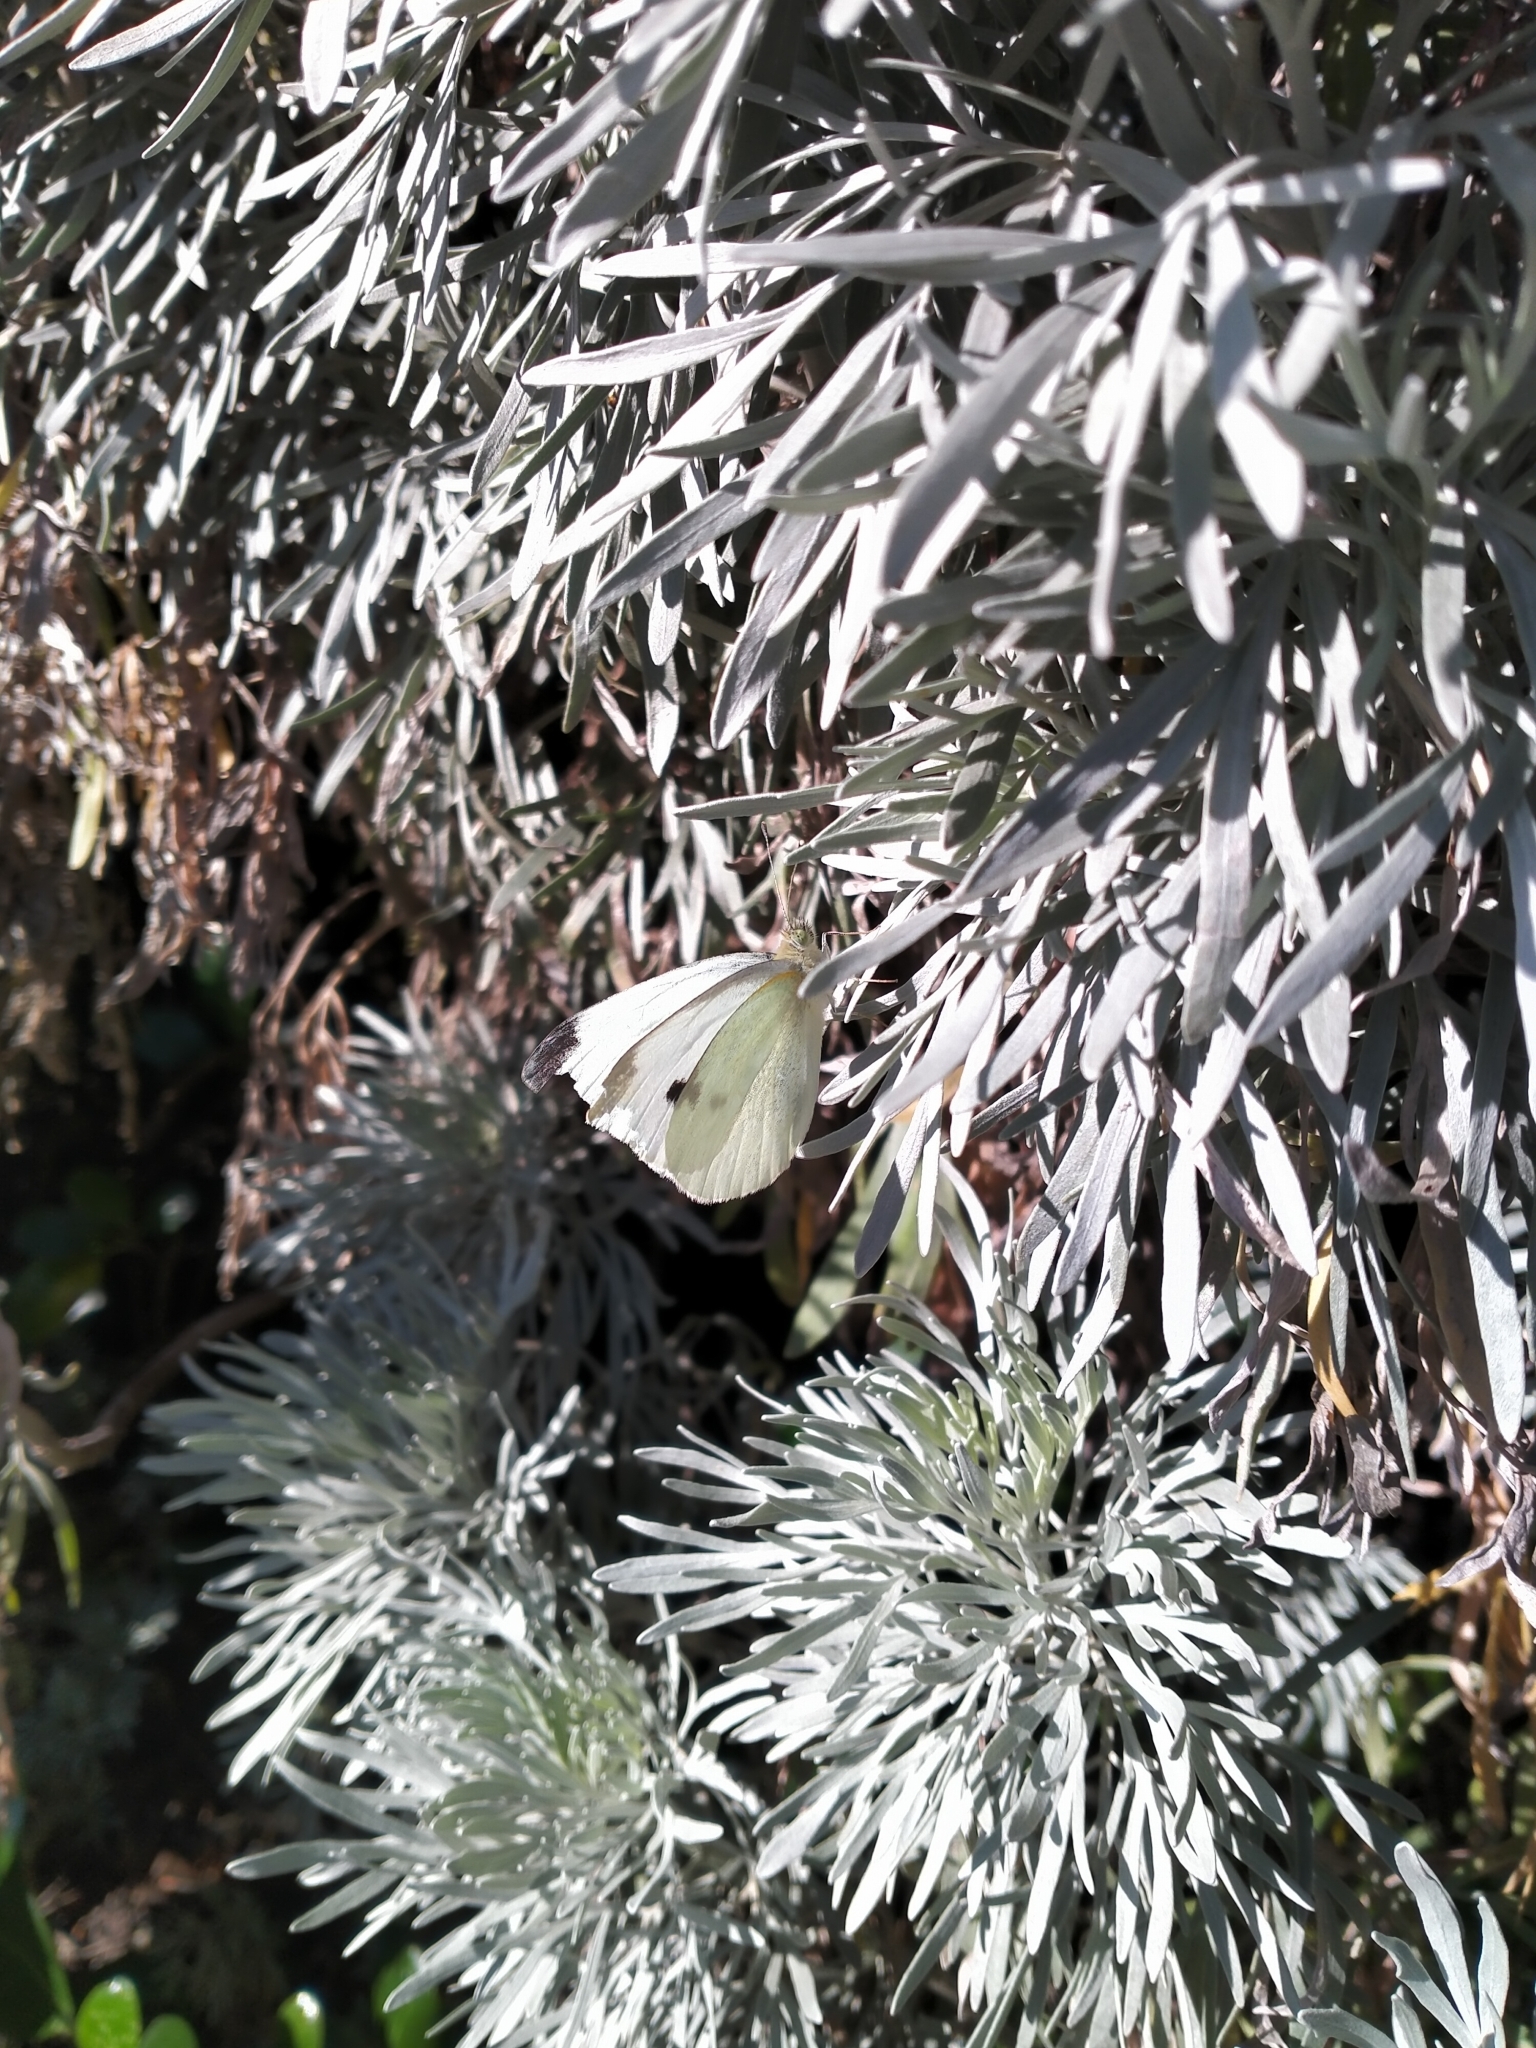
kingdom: Animalia
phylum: Arthropoda
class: Insecta
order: Lepidoptera
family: Pieridae
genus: Pieris
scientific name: Pieris rapae
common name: Small white
